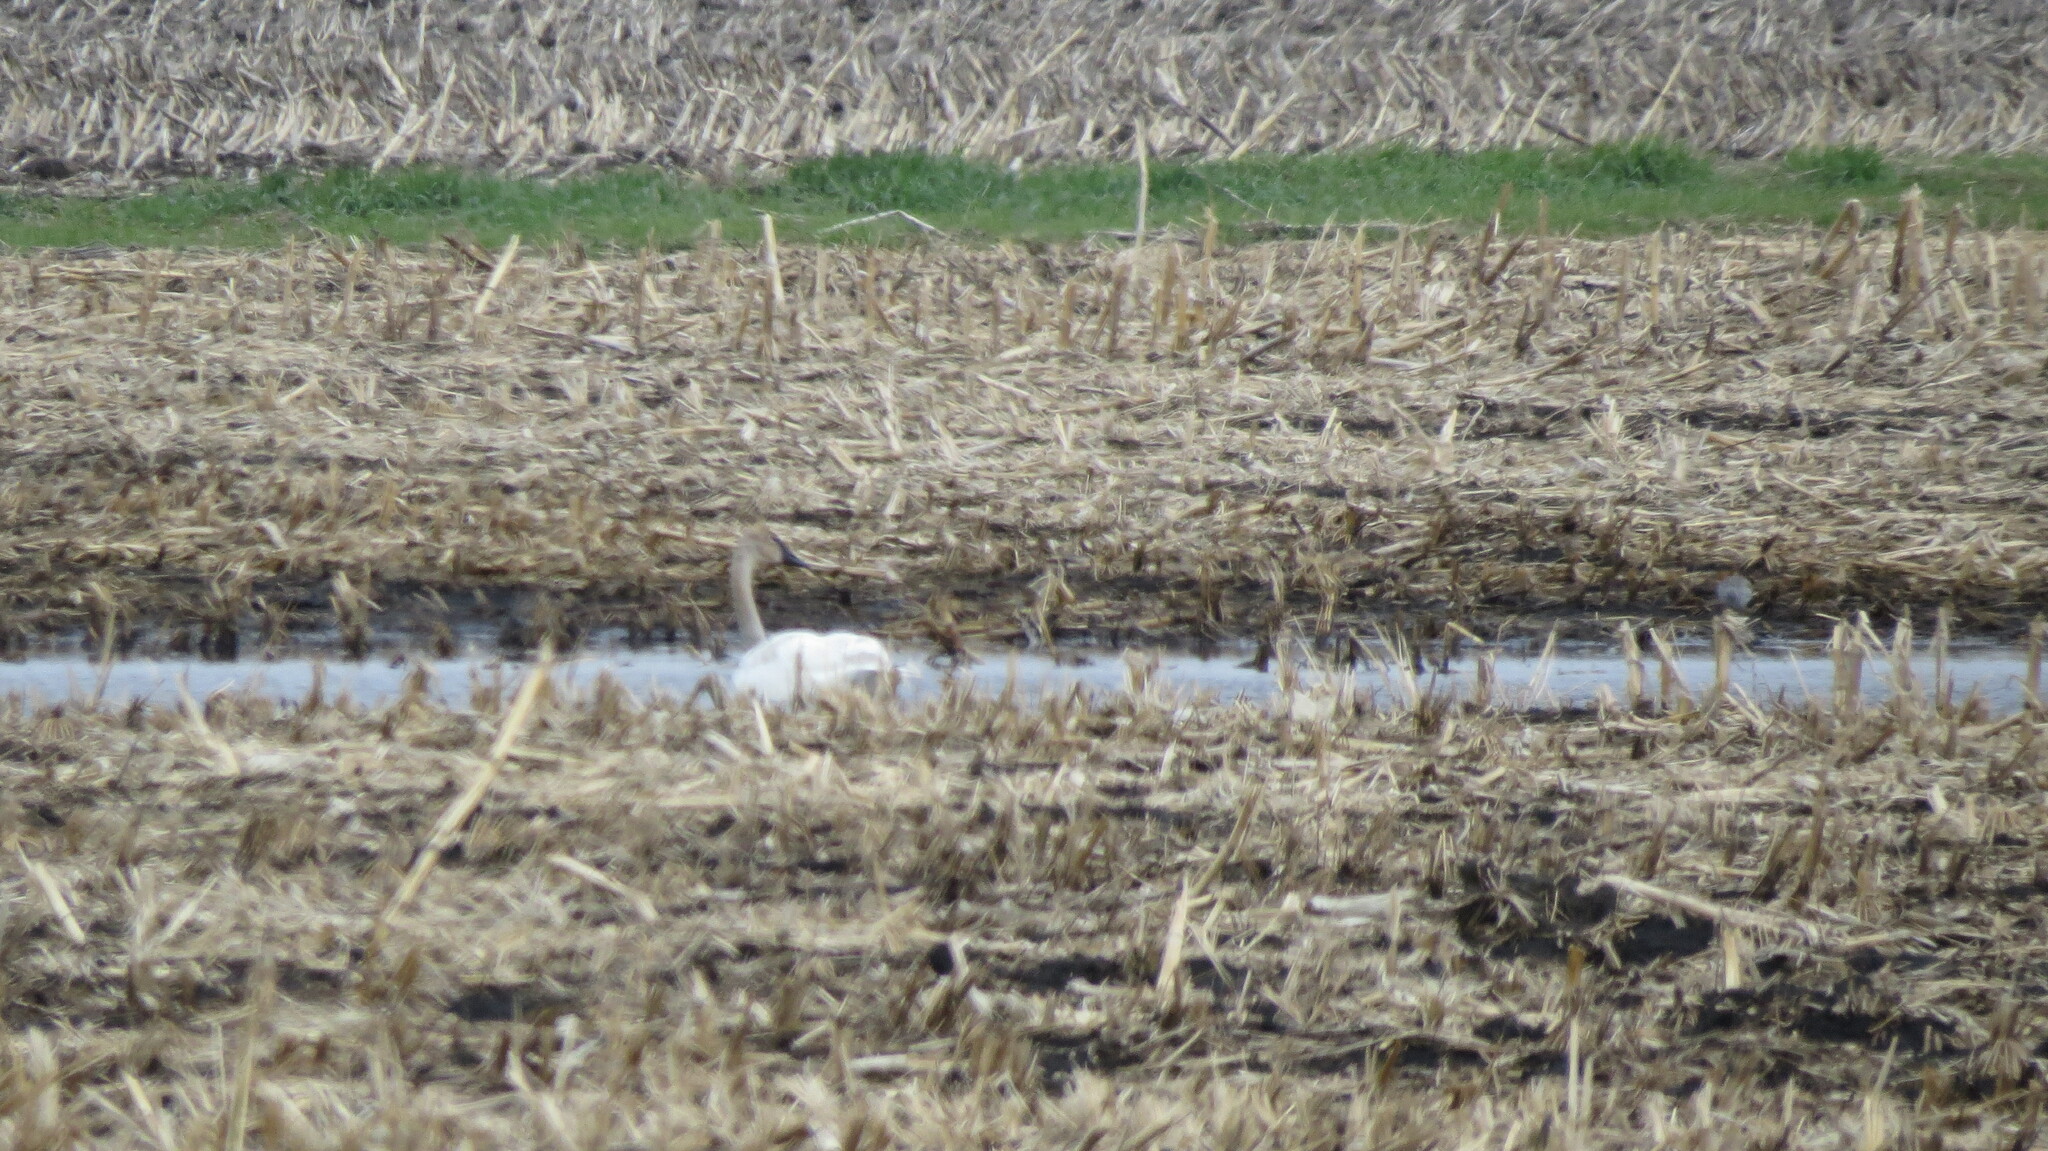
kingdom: Animalia
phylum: Chordata
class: Aves
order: Anseriformes
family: Anatidae
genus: Cygnus
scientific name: Cygnus buccinator
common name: Trumpeter swan
